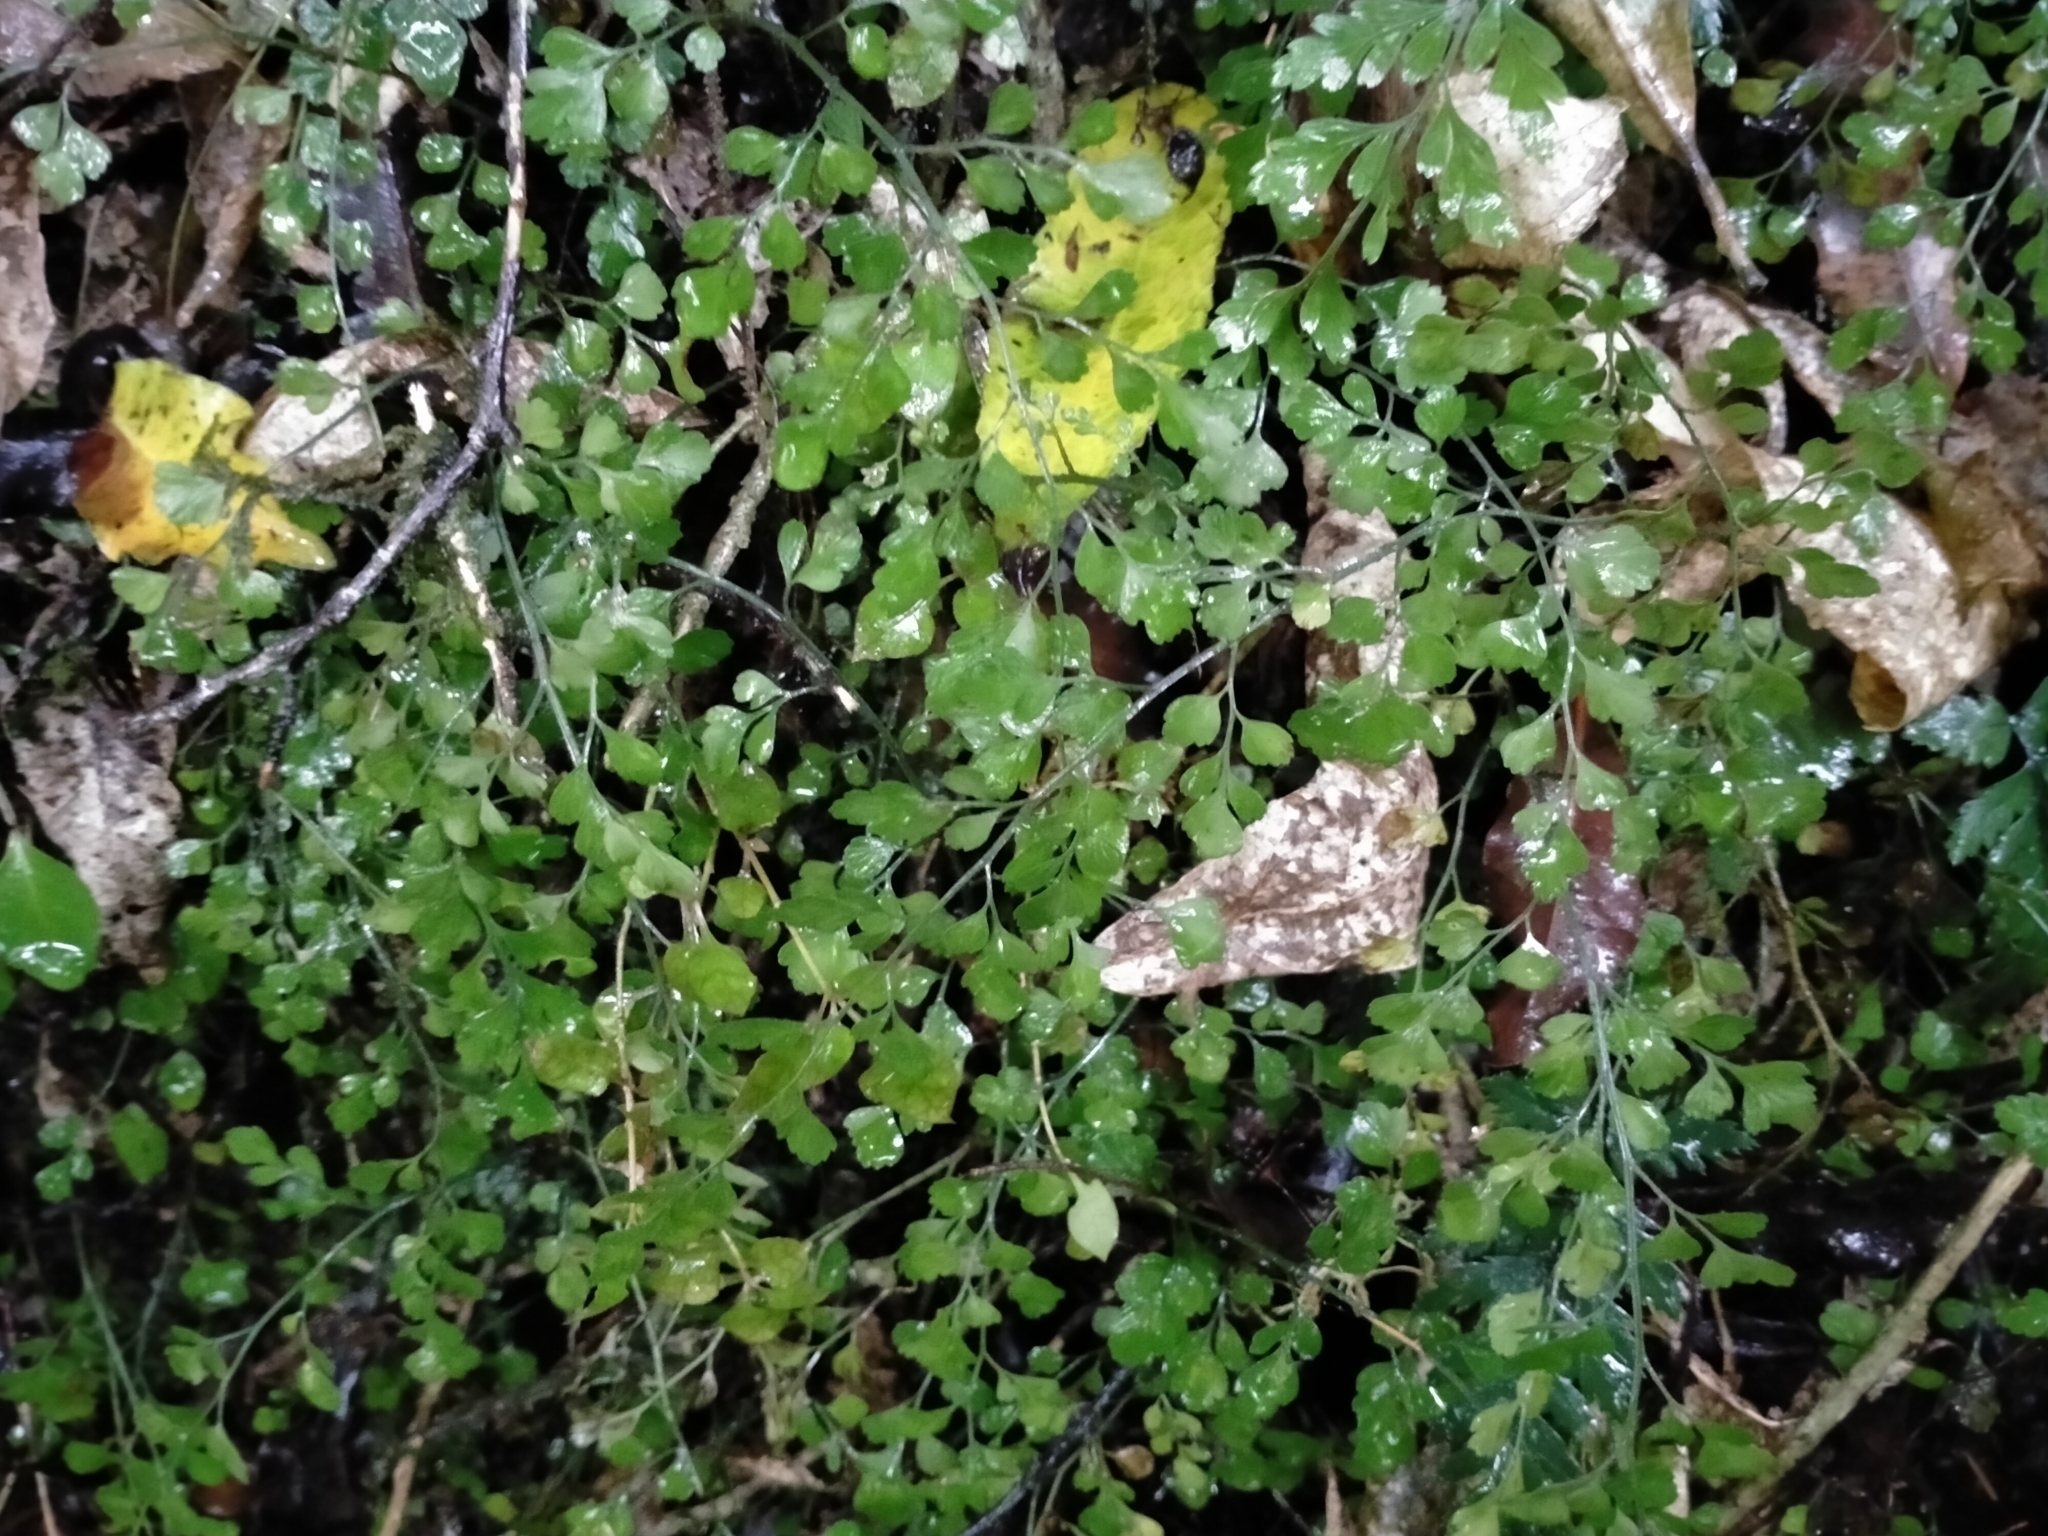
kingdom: Plantae
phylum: Tracheophyta
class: Polypodiopsida
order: Polypodiales
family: Aspleniaceae
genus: Asplenium
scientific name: Asplenium hookerianum
